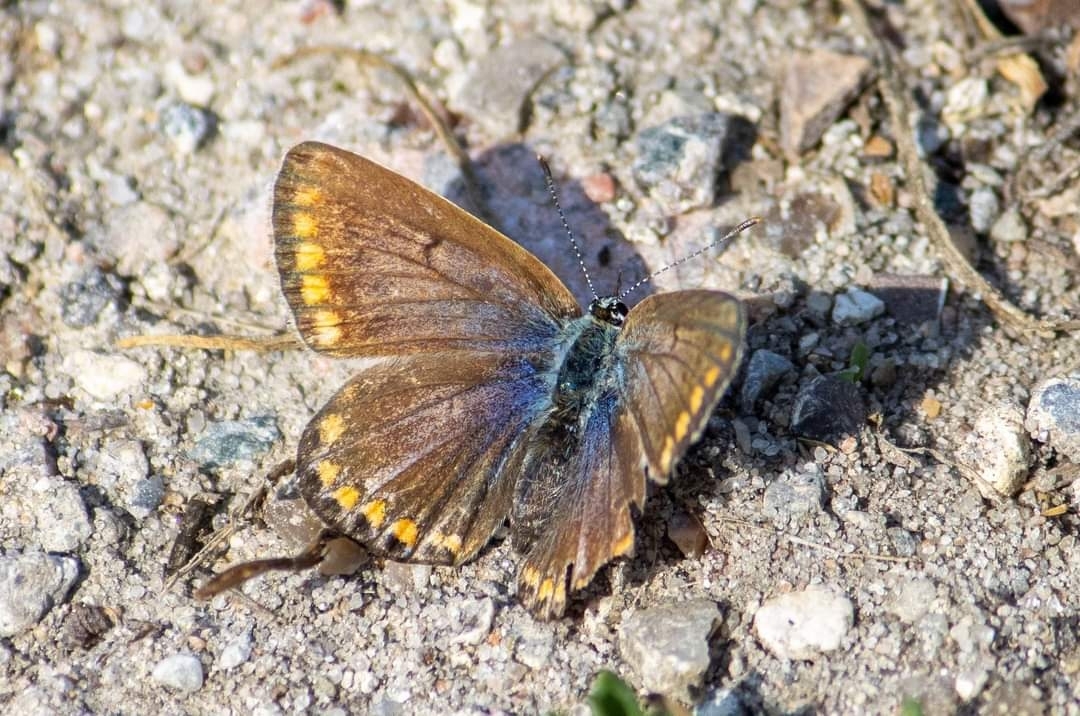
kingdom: Animalia
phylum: Arthropoda
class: Insecta
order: Lepidoptera
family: Lycaenidae
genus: Polyommatus
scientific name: Polyommatus icarus
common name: Common blue
